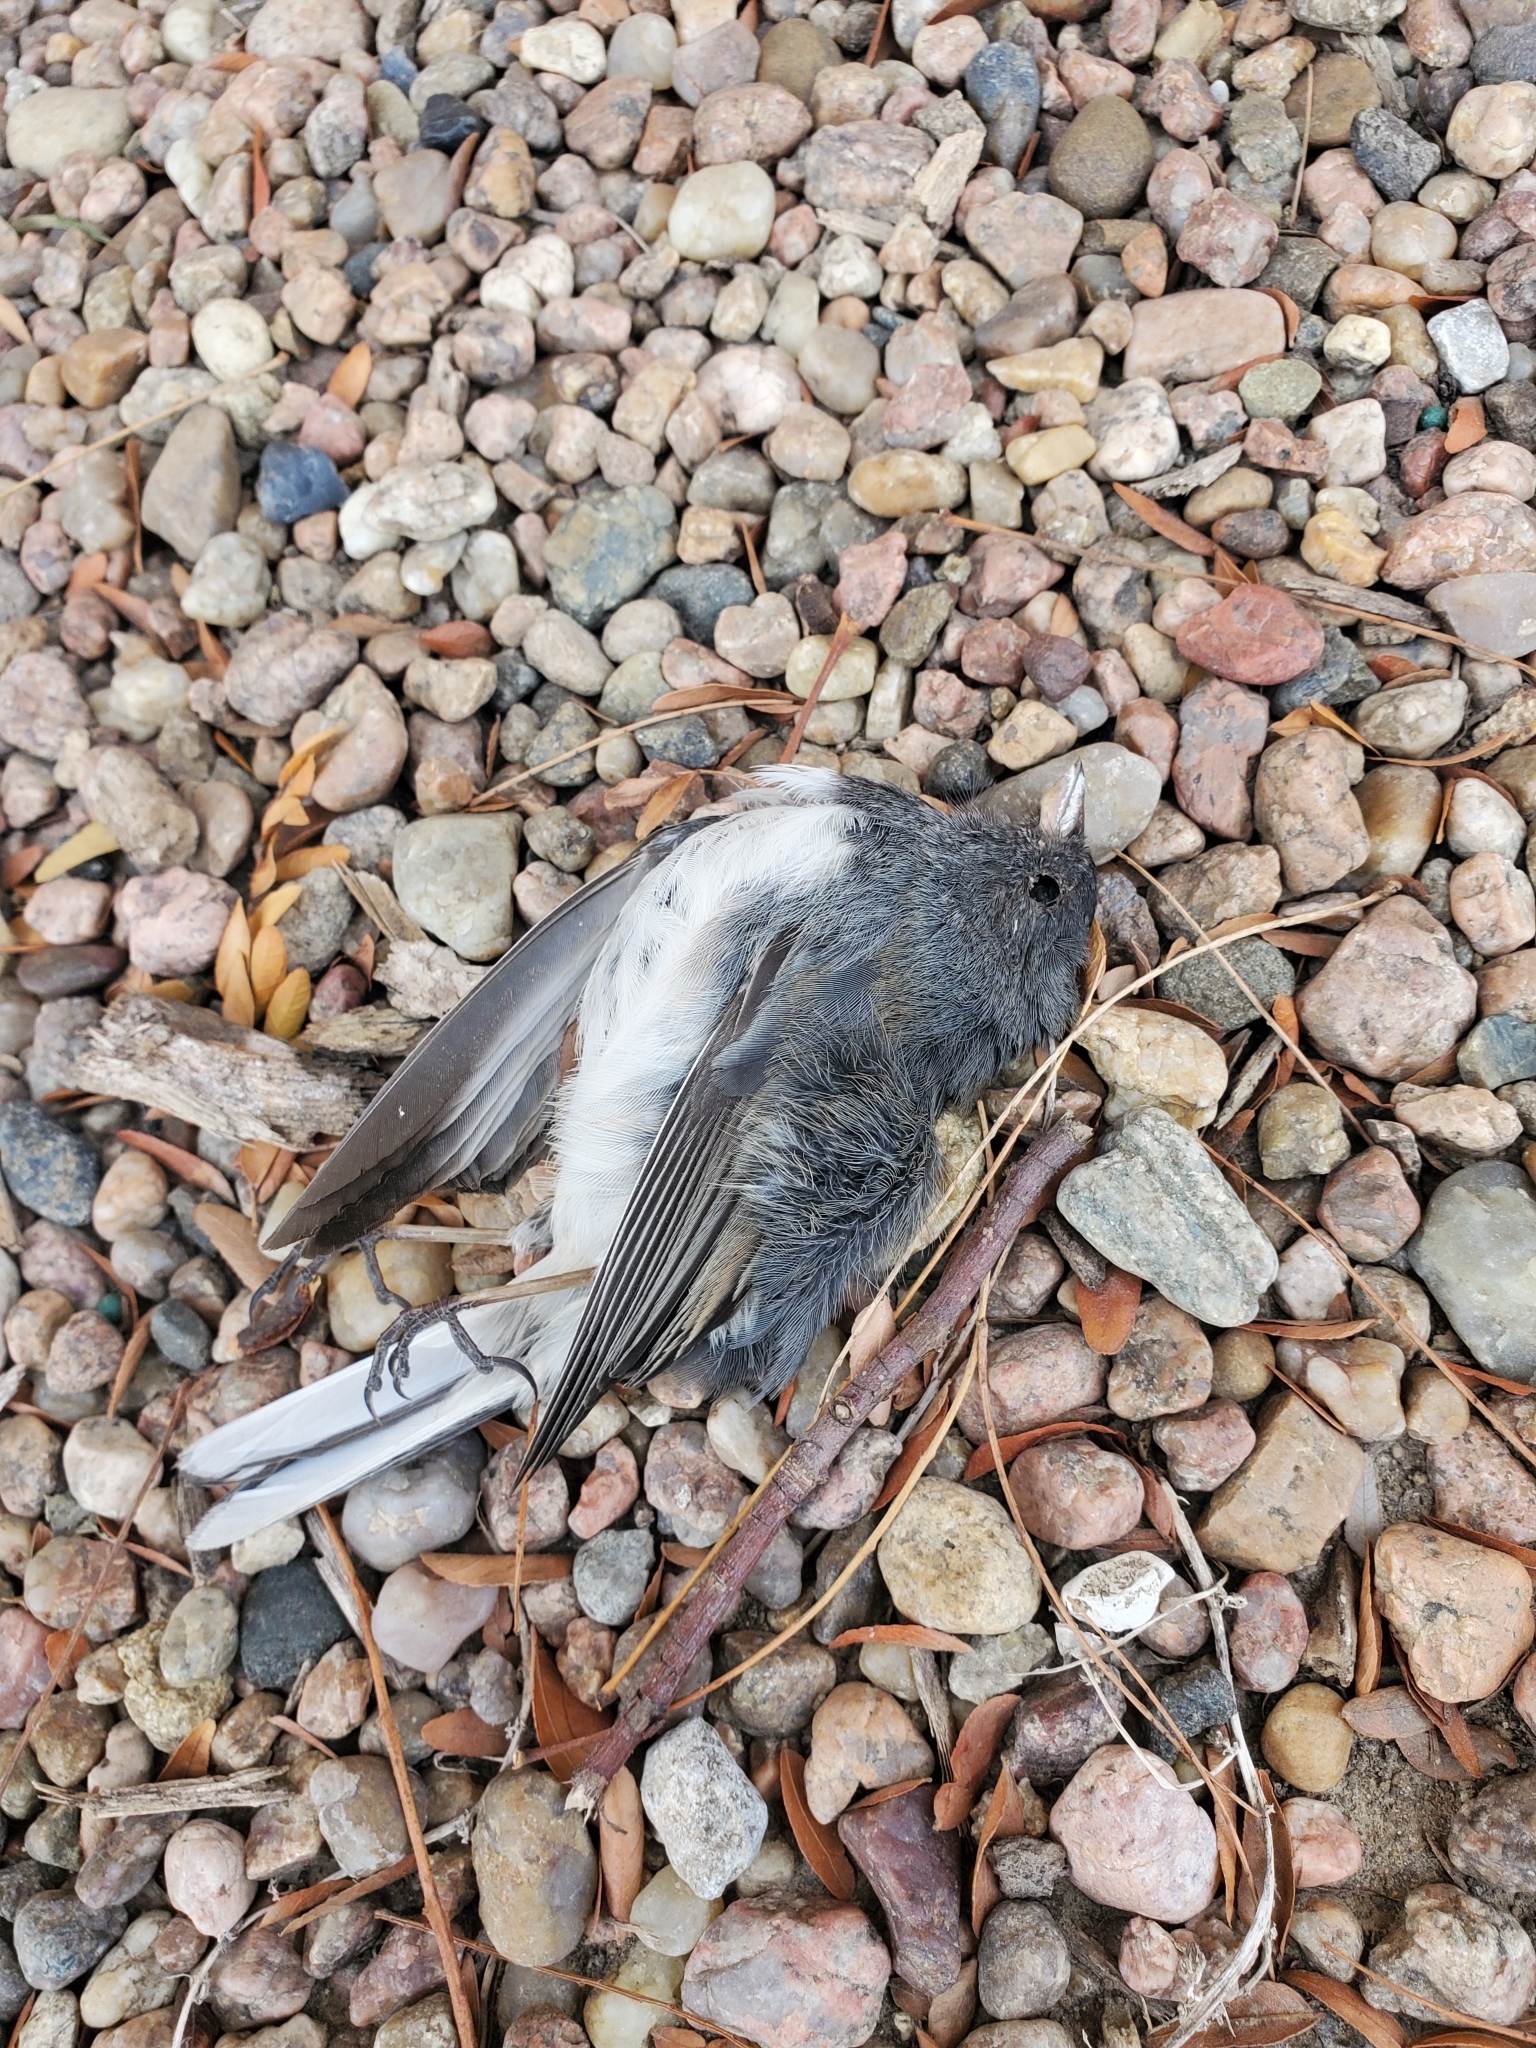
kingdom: Animalia
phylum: Chordata
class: Aves
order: Passeriformes
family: Passerellidae
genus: Junco
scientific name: Junco hyemalis
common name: Dark-eyed junco
